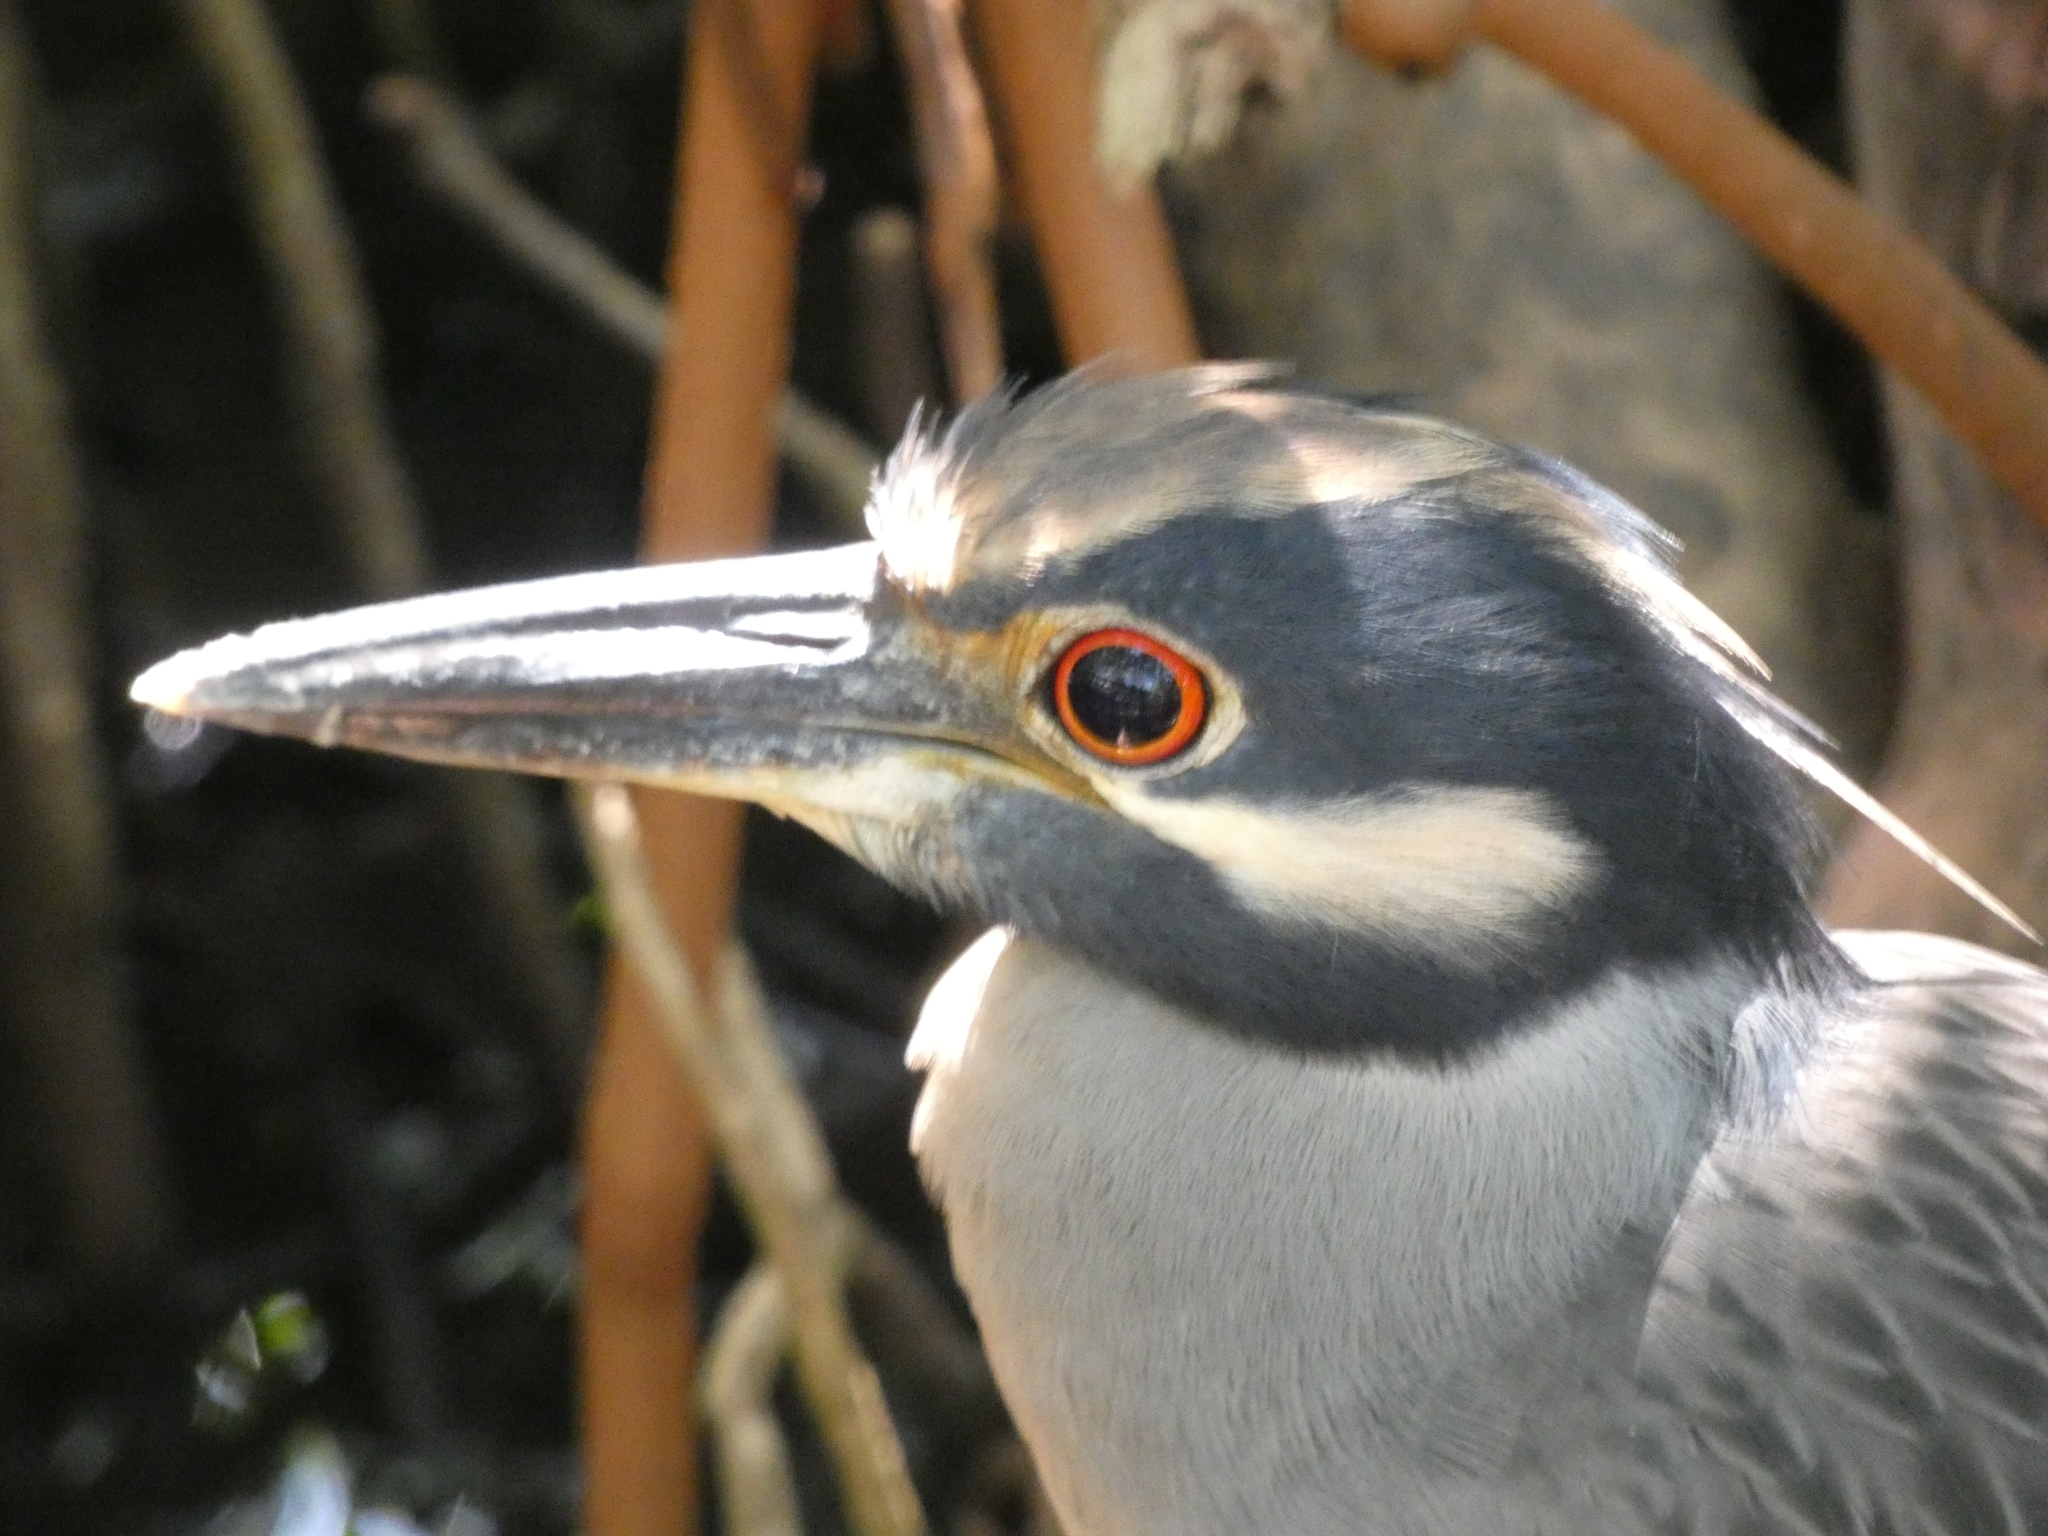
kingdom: Animalia
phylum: Chordata
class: Aves
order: Pelecaniformes
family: Ardeidae
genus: Nyctanassa
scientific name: Nyctanassa violacea
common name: Yellow-crowned night heron
